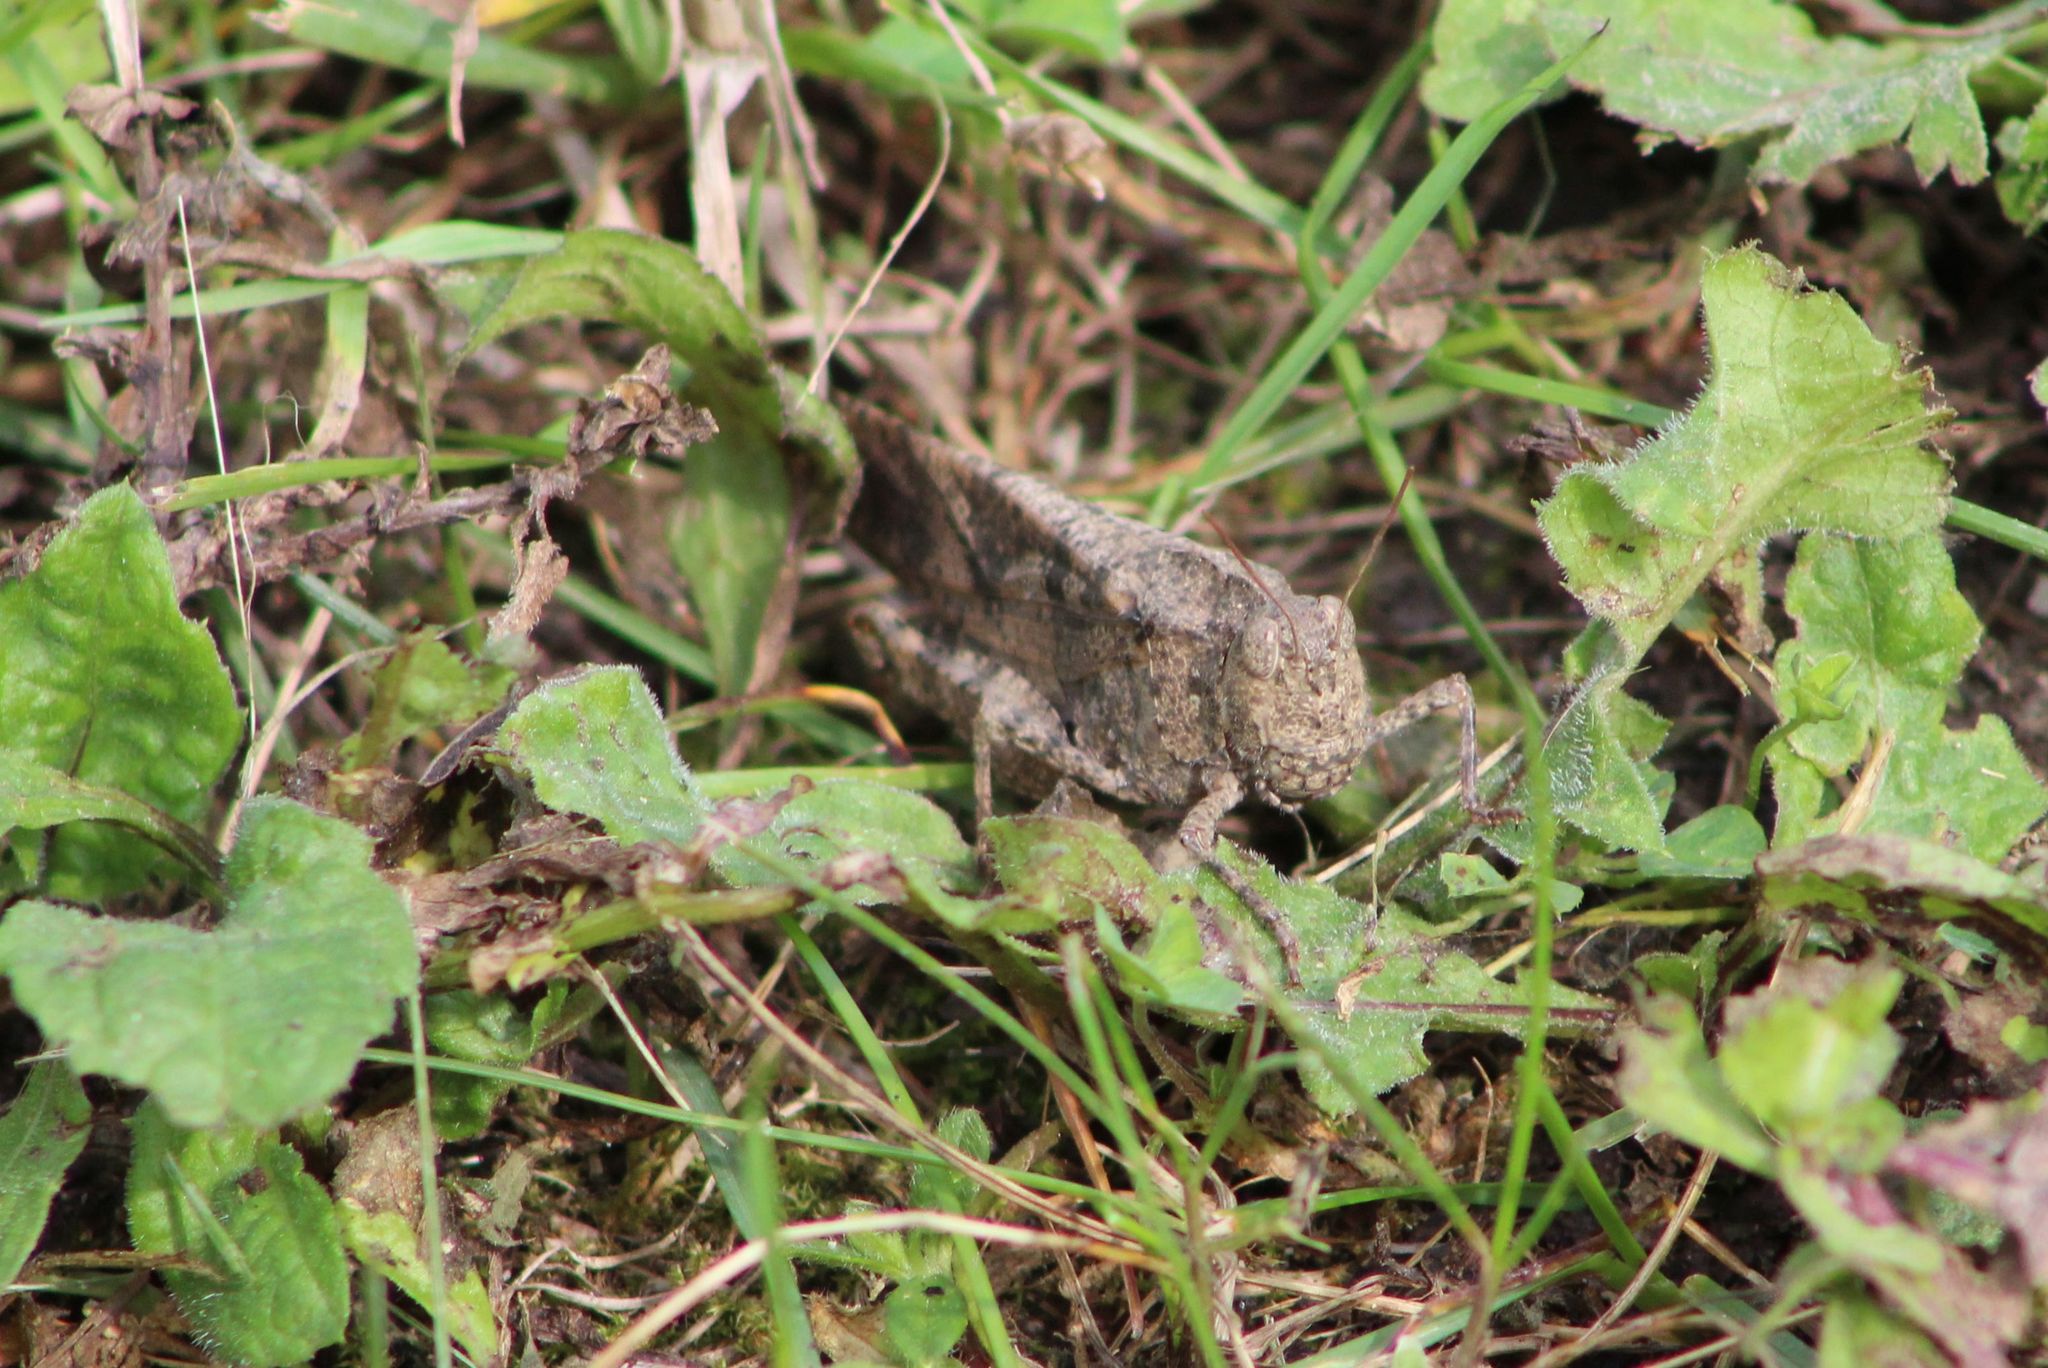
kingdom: Animalia
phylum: Arthropoda
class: Insecta
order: Orthoptera
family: Acrididae
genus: Dissosteira
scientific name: Dissosteira carolina
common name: Carolina grasshopper
